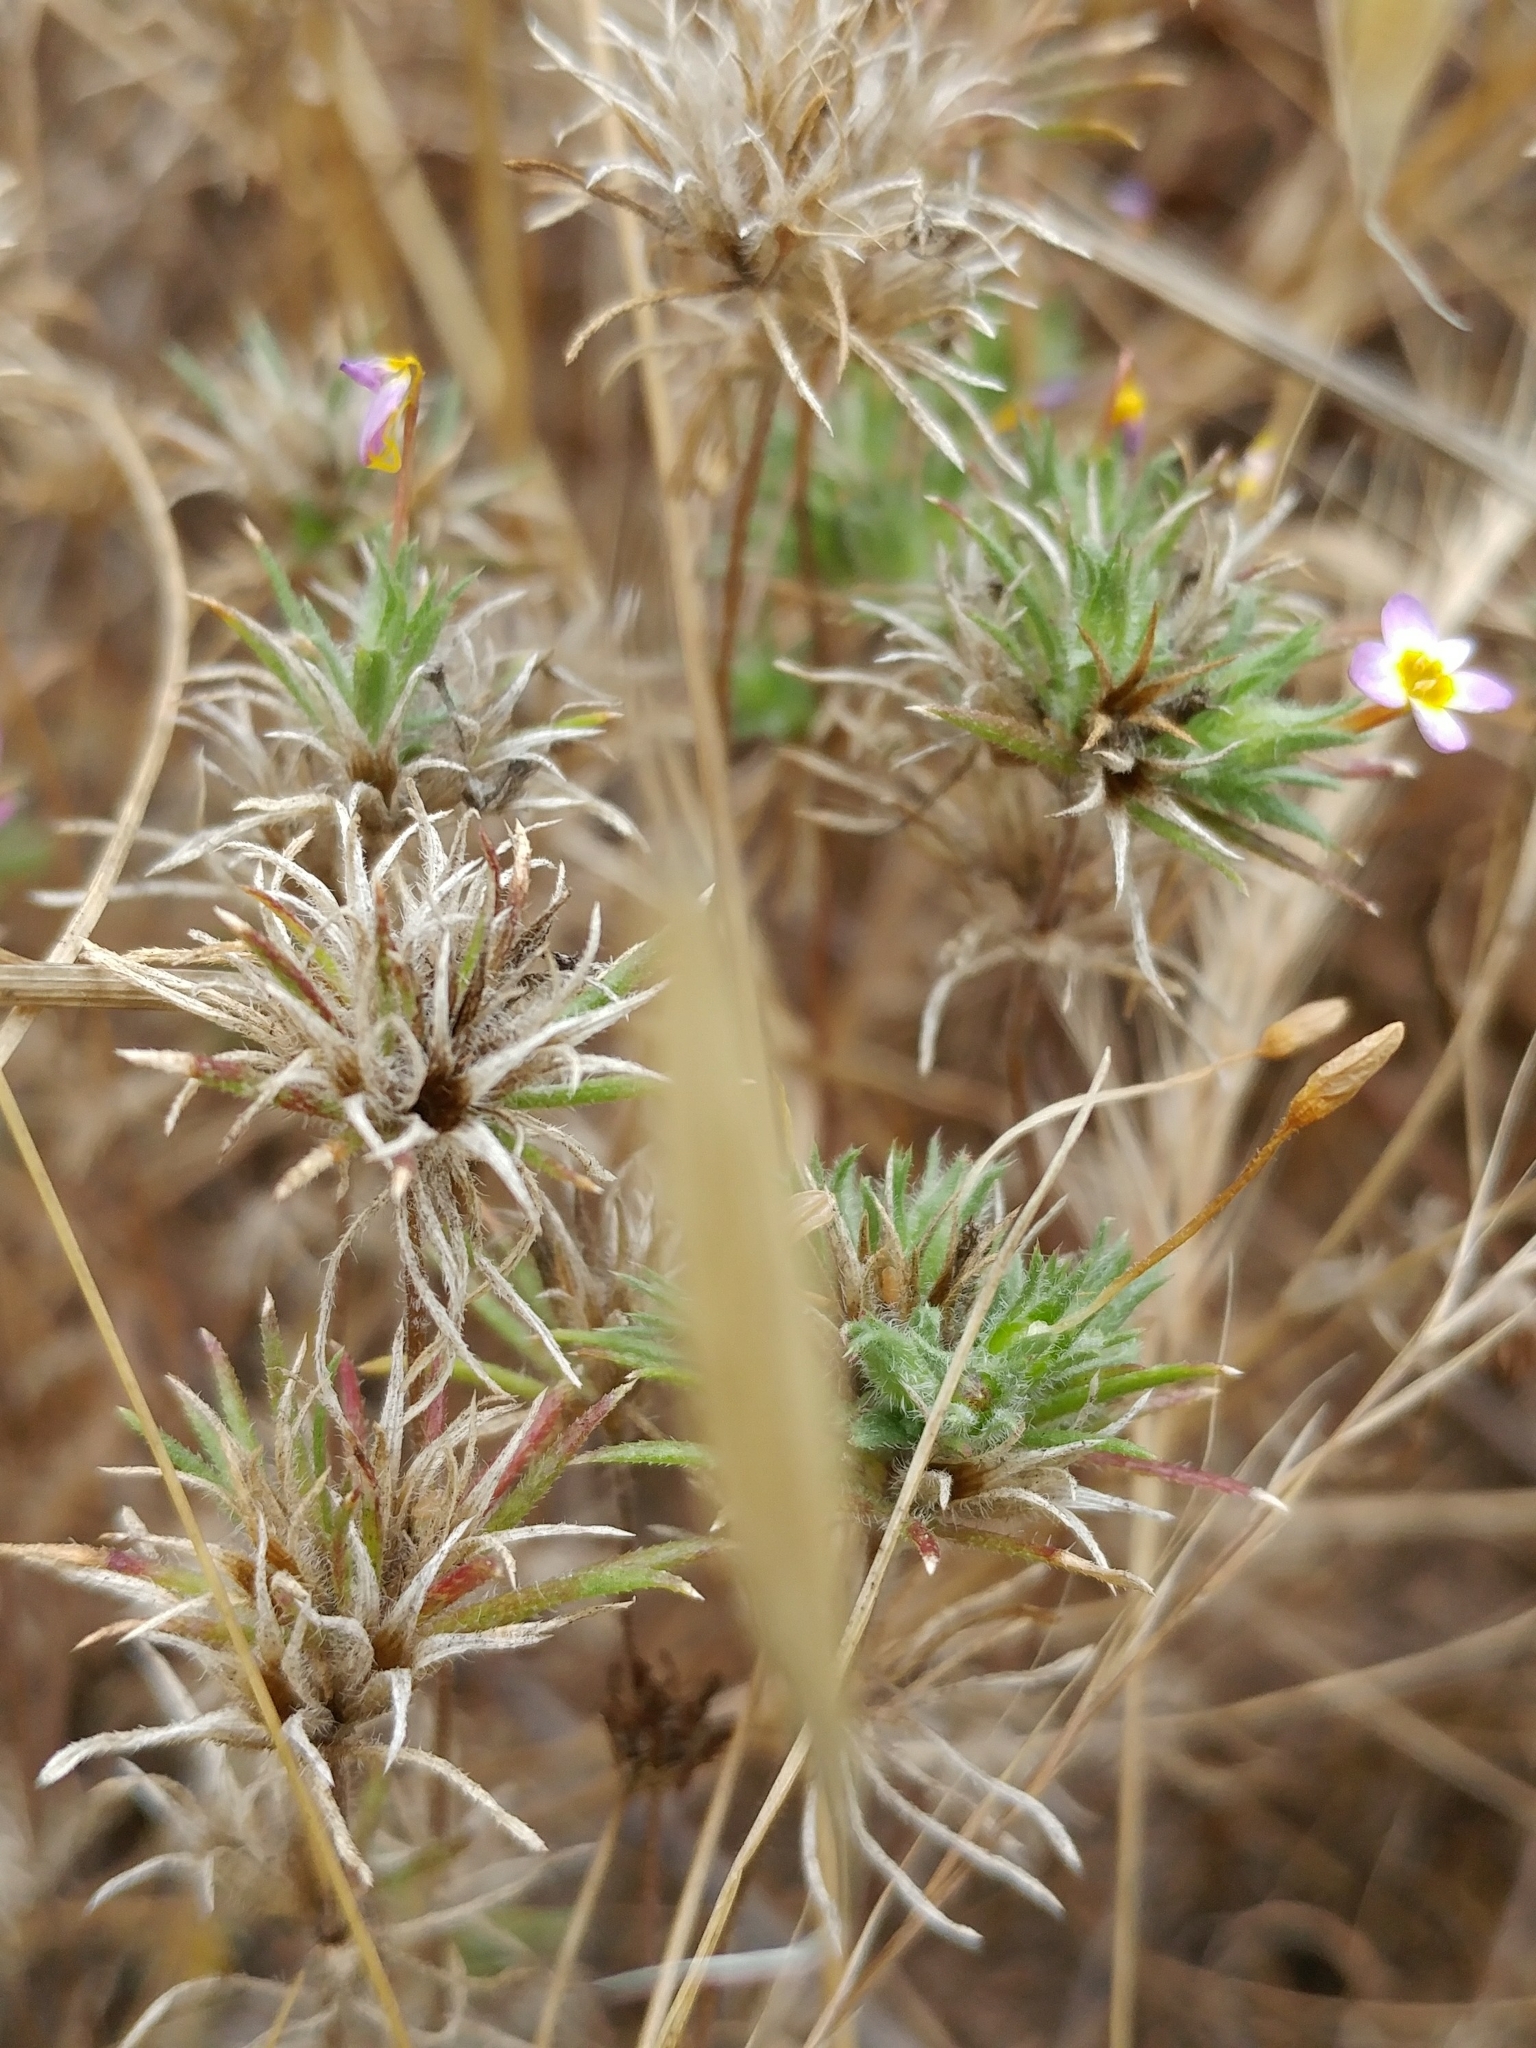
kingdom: Plantae
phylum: Tracheophyta
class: Magnoliopsida
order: Ericales
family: Polemoniaceae
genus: Leptosiphon
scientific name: Leptosiphon bicolor
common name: True babystars
